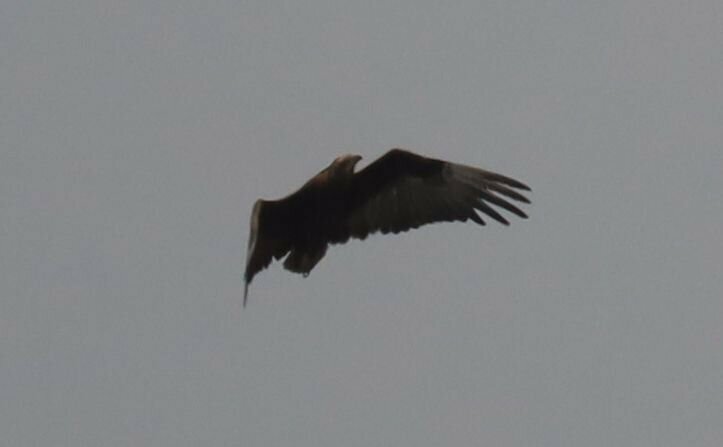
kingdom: Animalia
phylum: Chordata
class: Aves
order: Accipitriformes
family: Accipitridae
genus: Terathopius
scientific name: Terathopius ecaudatus
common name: Bateleur
